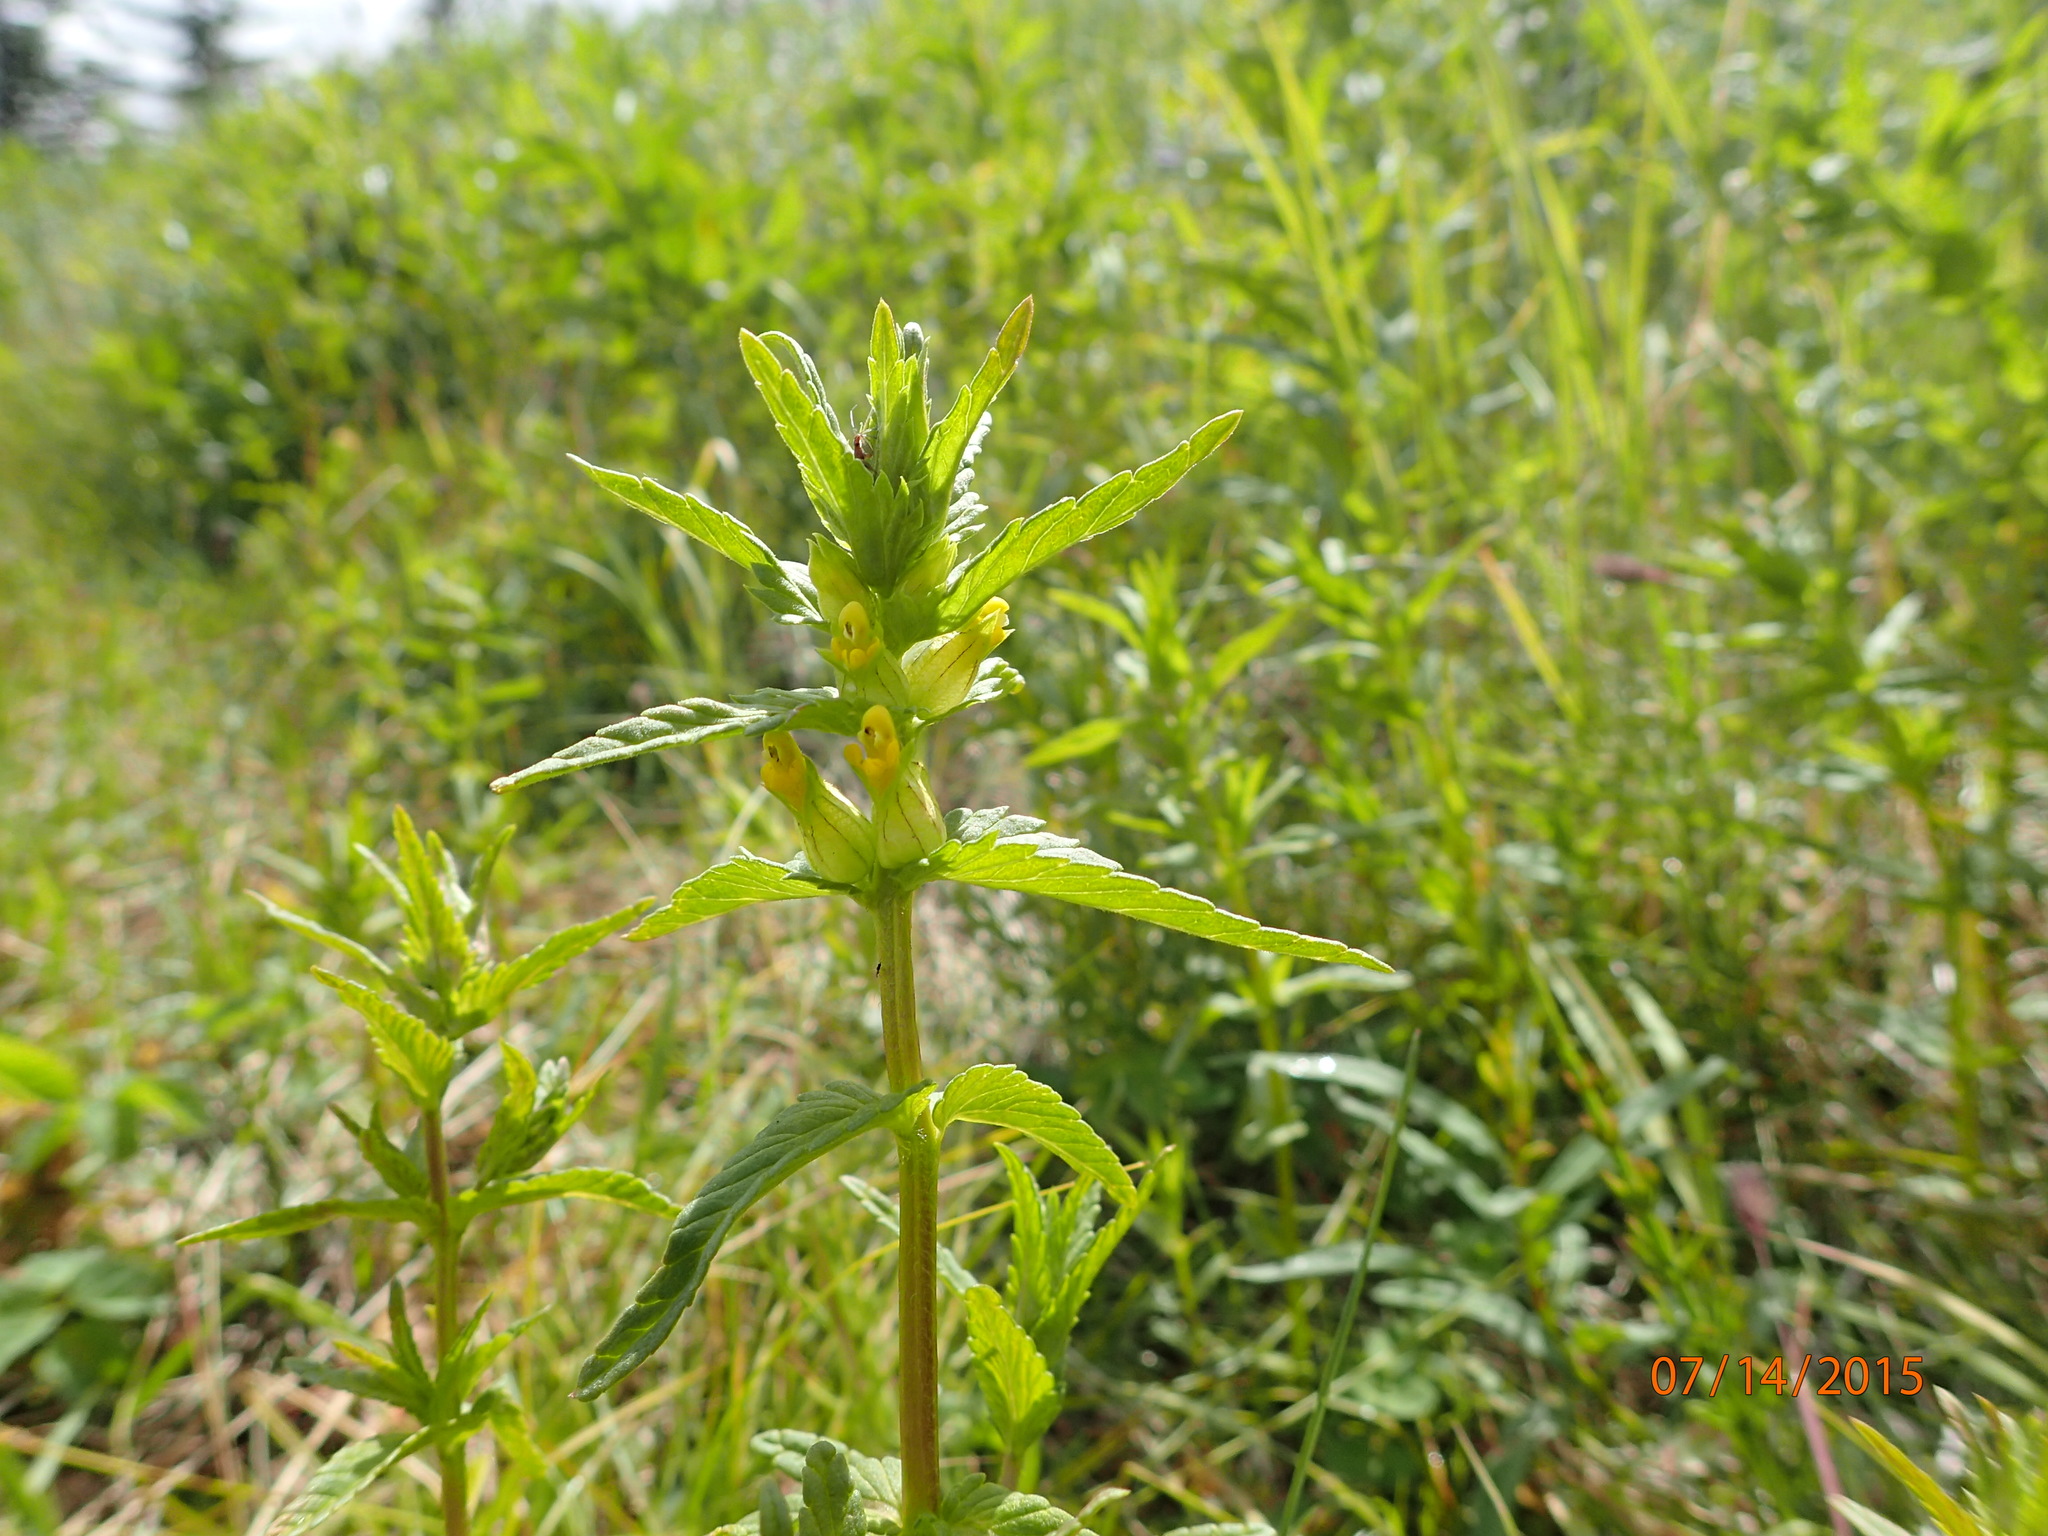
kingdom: Plantae
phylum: Tracheophyta
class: Magnoliopsida
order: Lamiales
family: Orobanchaceae
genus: Rhinanthus
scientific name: Rhinanthus minor
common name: Yellow-rattle
